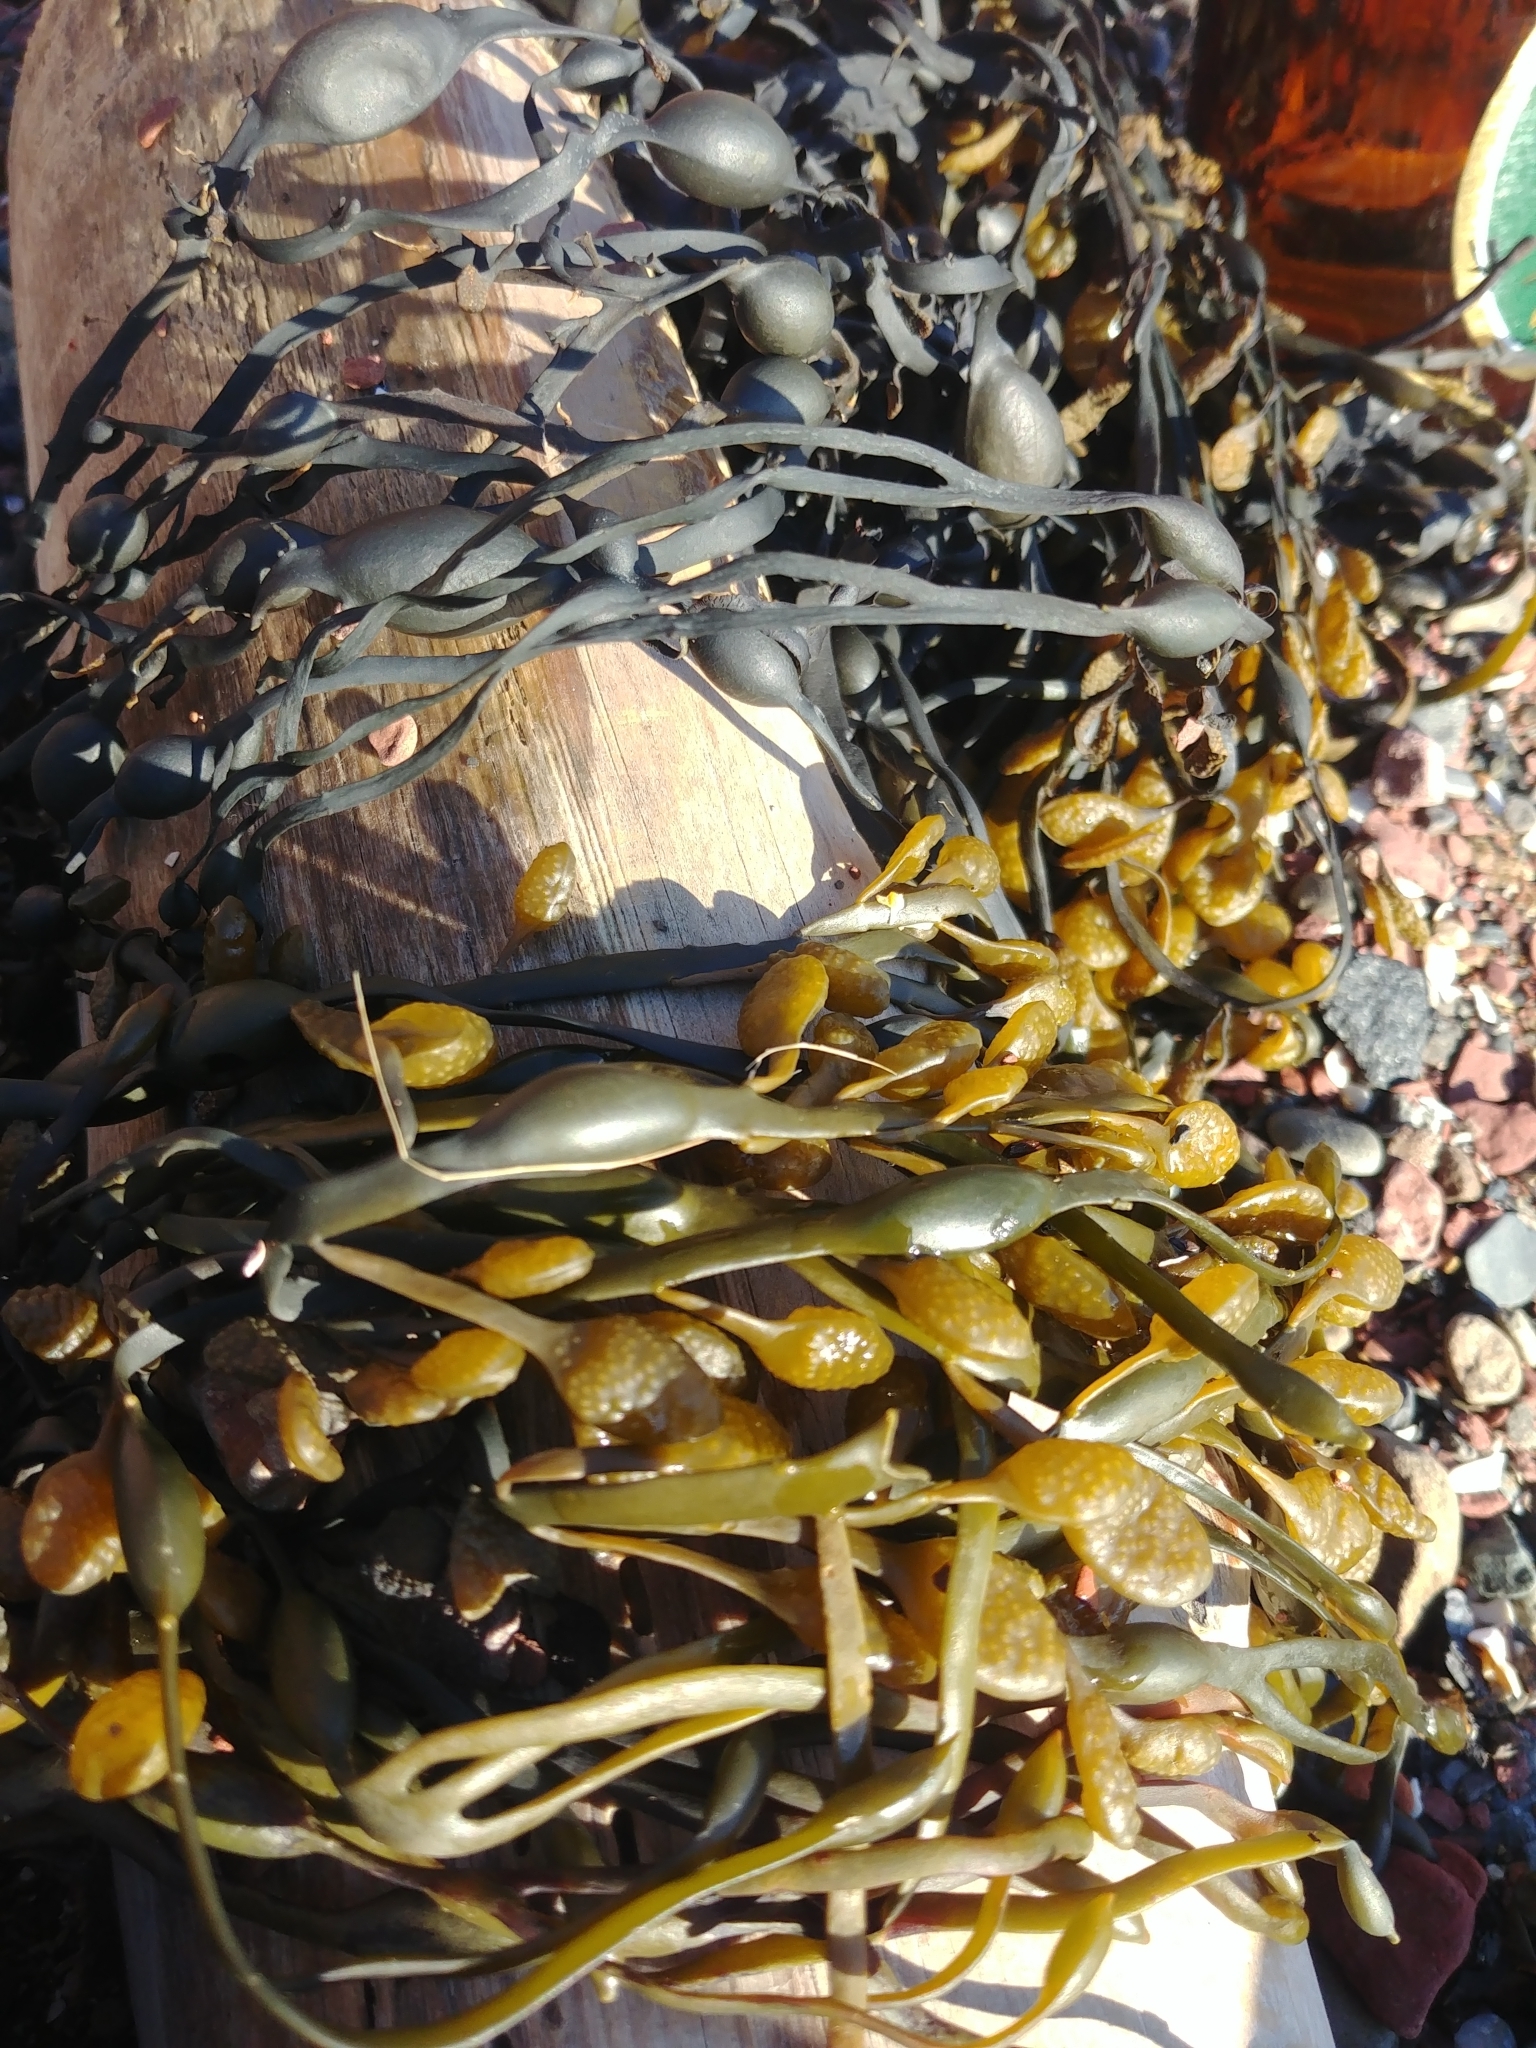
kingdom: Chromista
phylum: Ochrophyta
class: Phaeophyceae
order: Fucales
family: Fucaceae
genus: Ascophyllum
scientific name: Ascophyllum nodosum
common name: Knotted wrack
